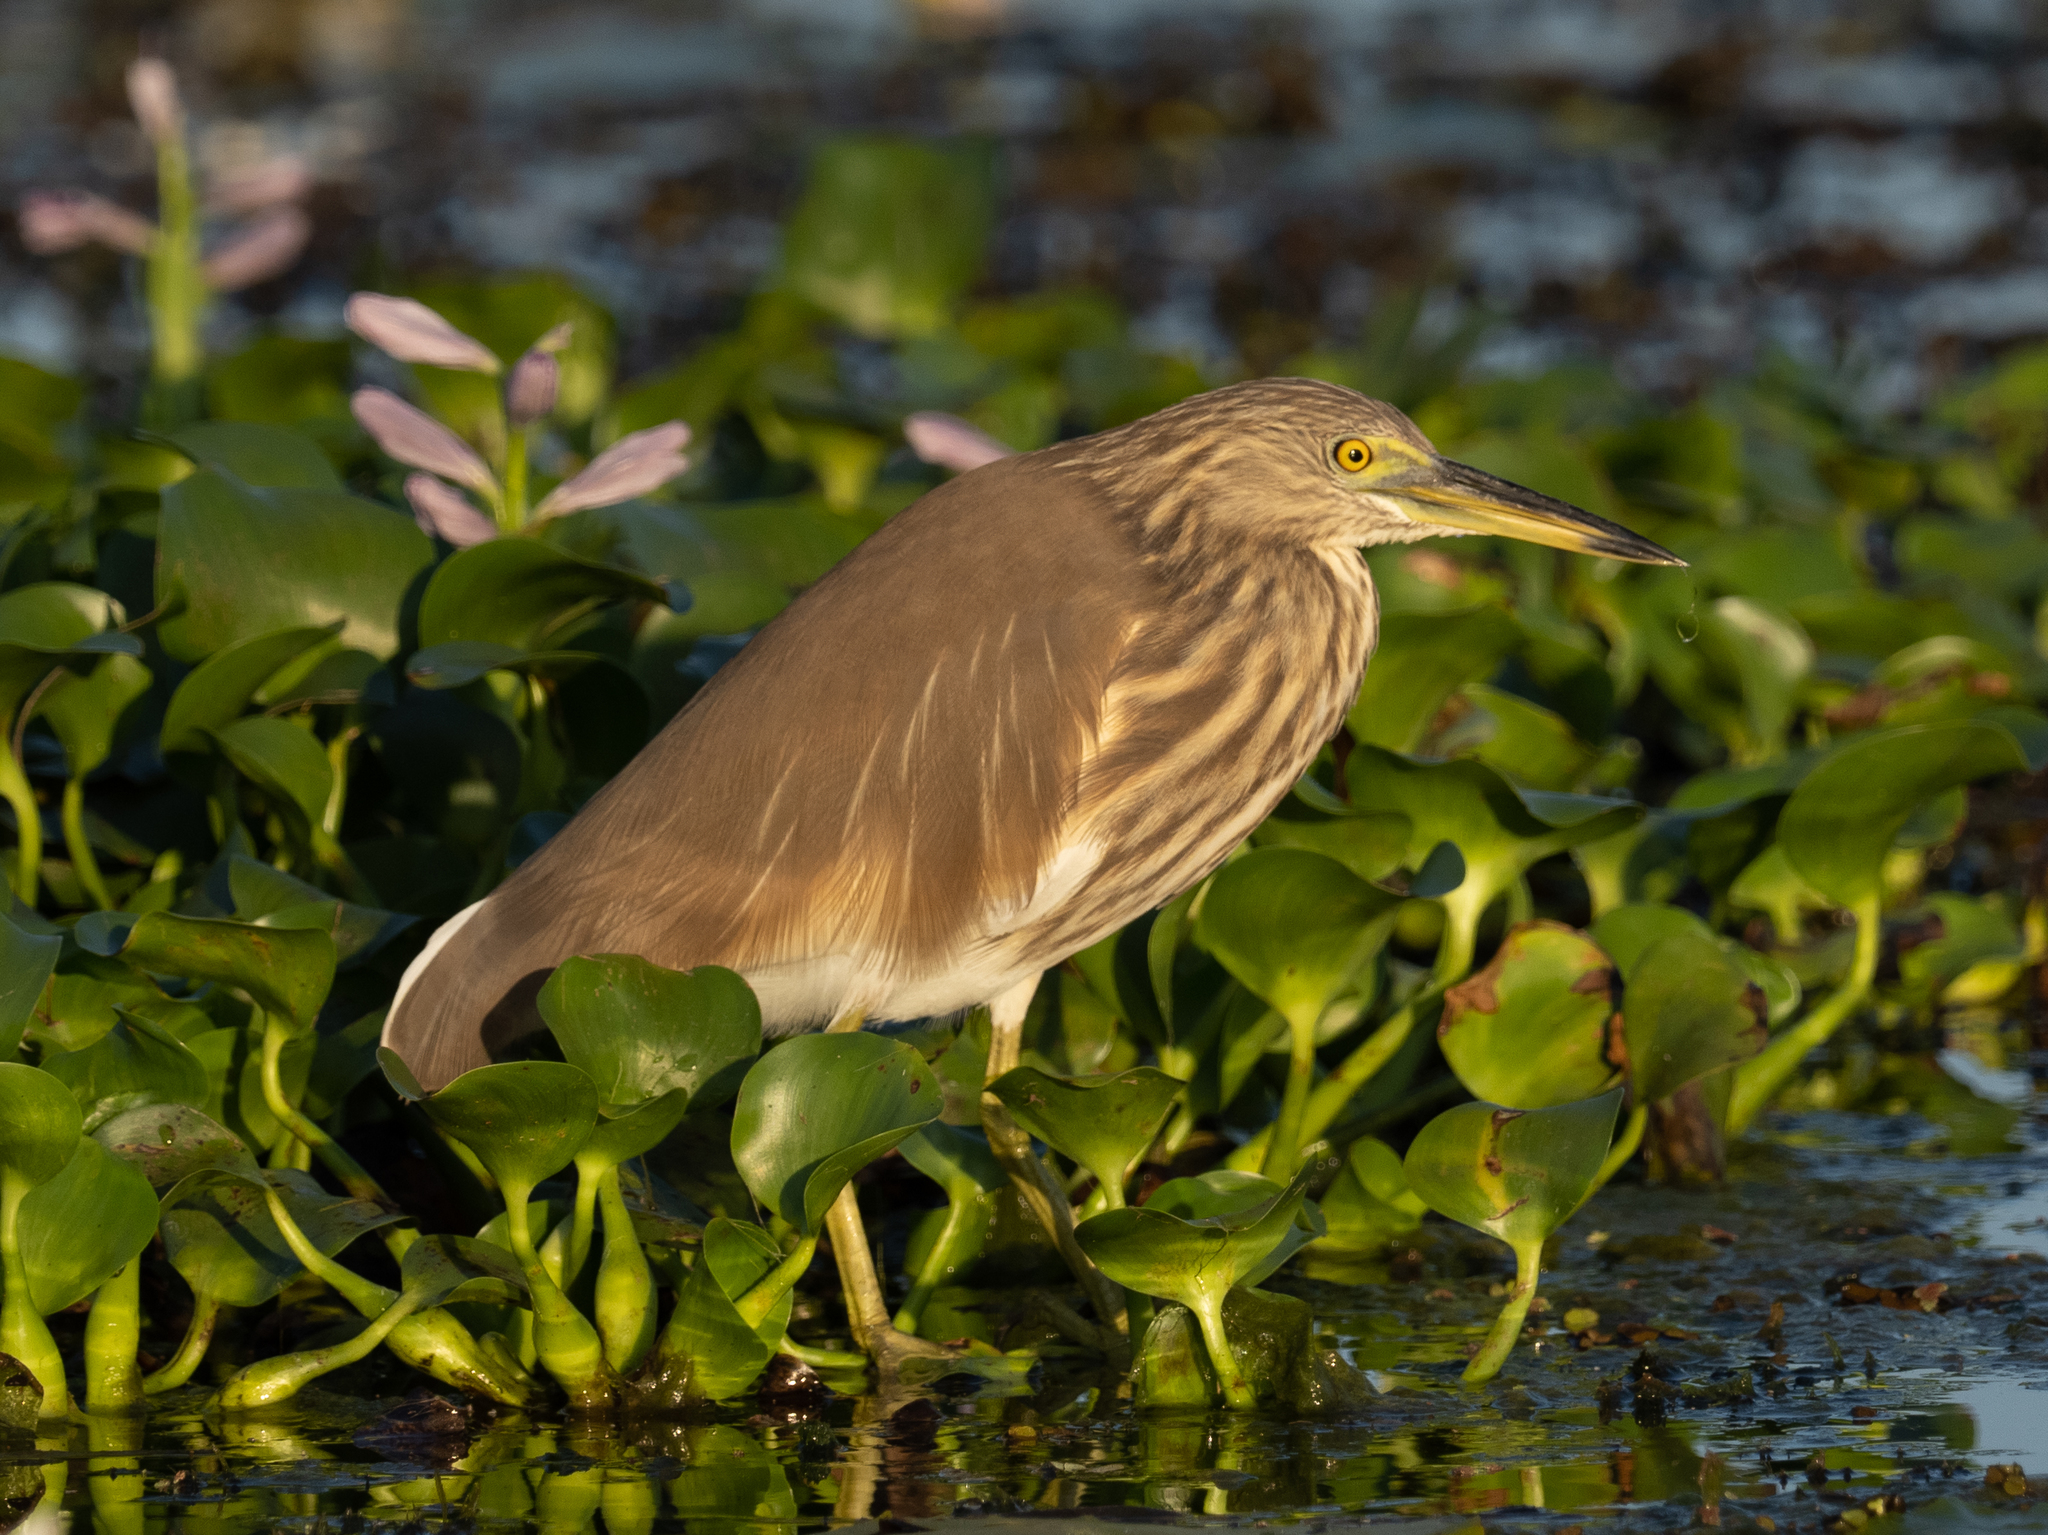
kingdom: Animalia
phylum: Chordata
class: Aves
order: Pelecaniformes
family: Ardeidae
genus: Ardeola
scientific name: Ardeola grayii
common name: Indian pond heron
